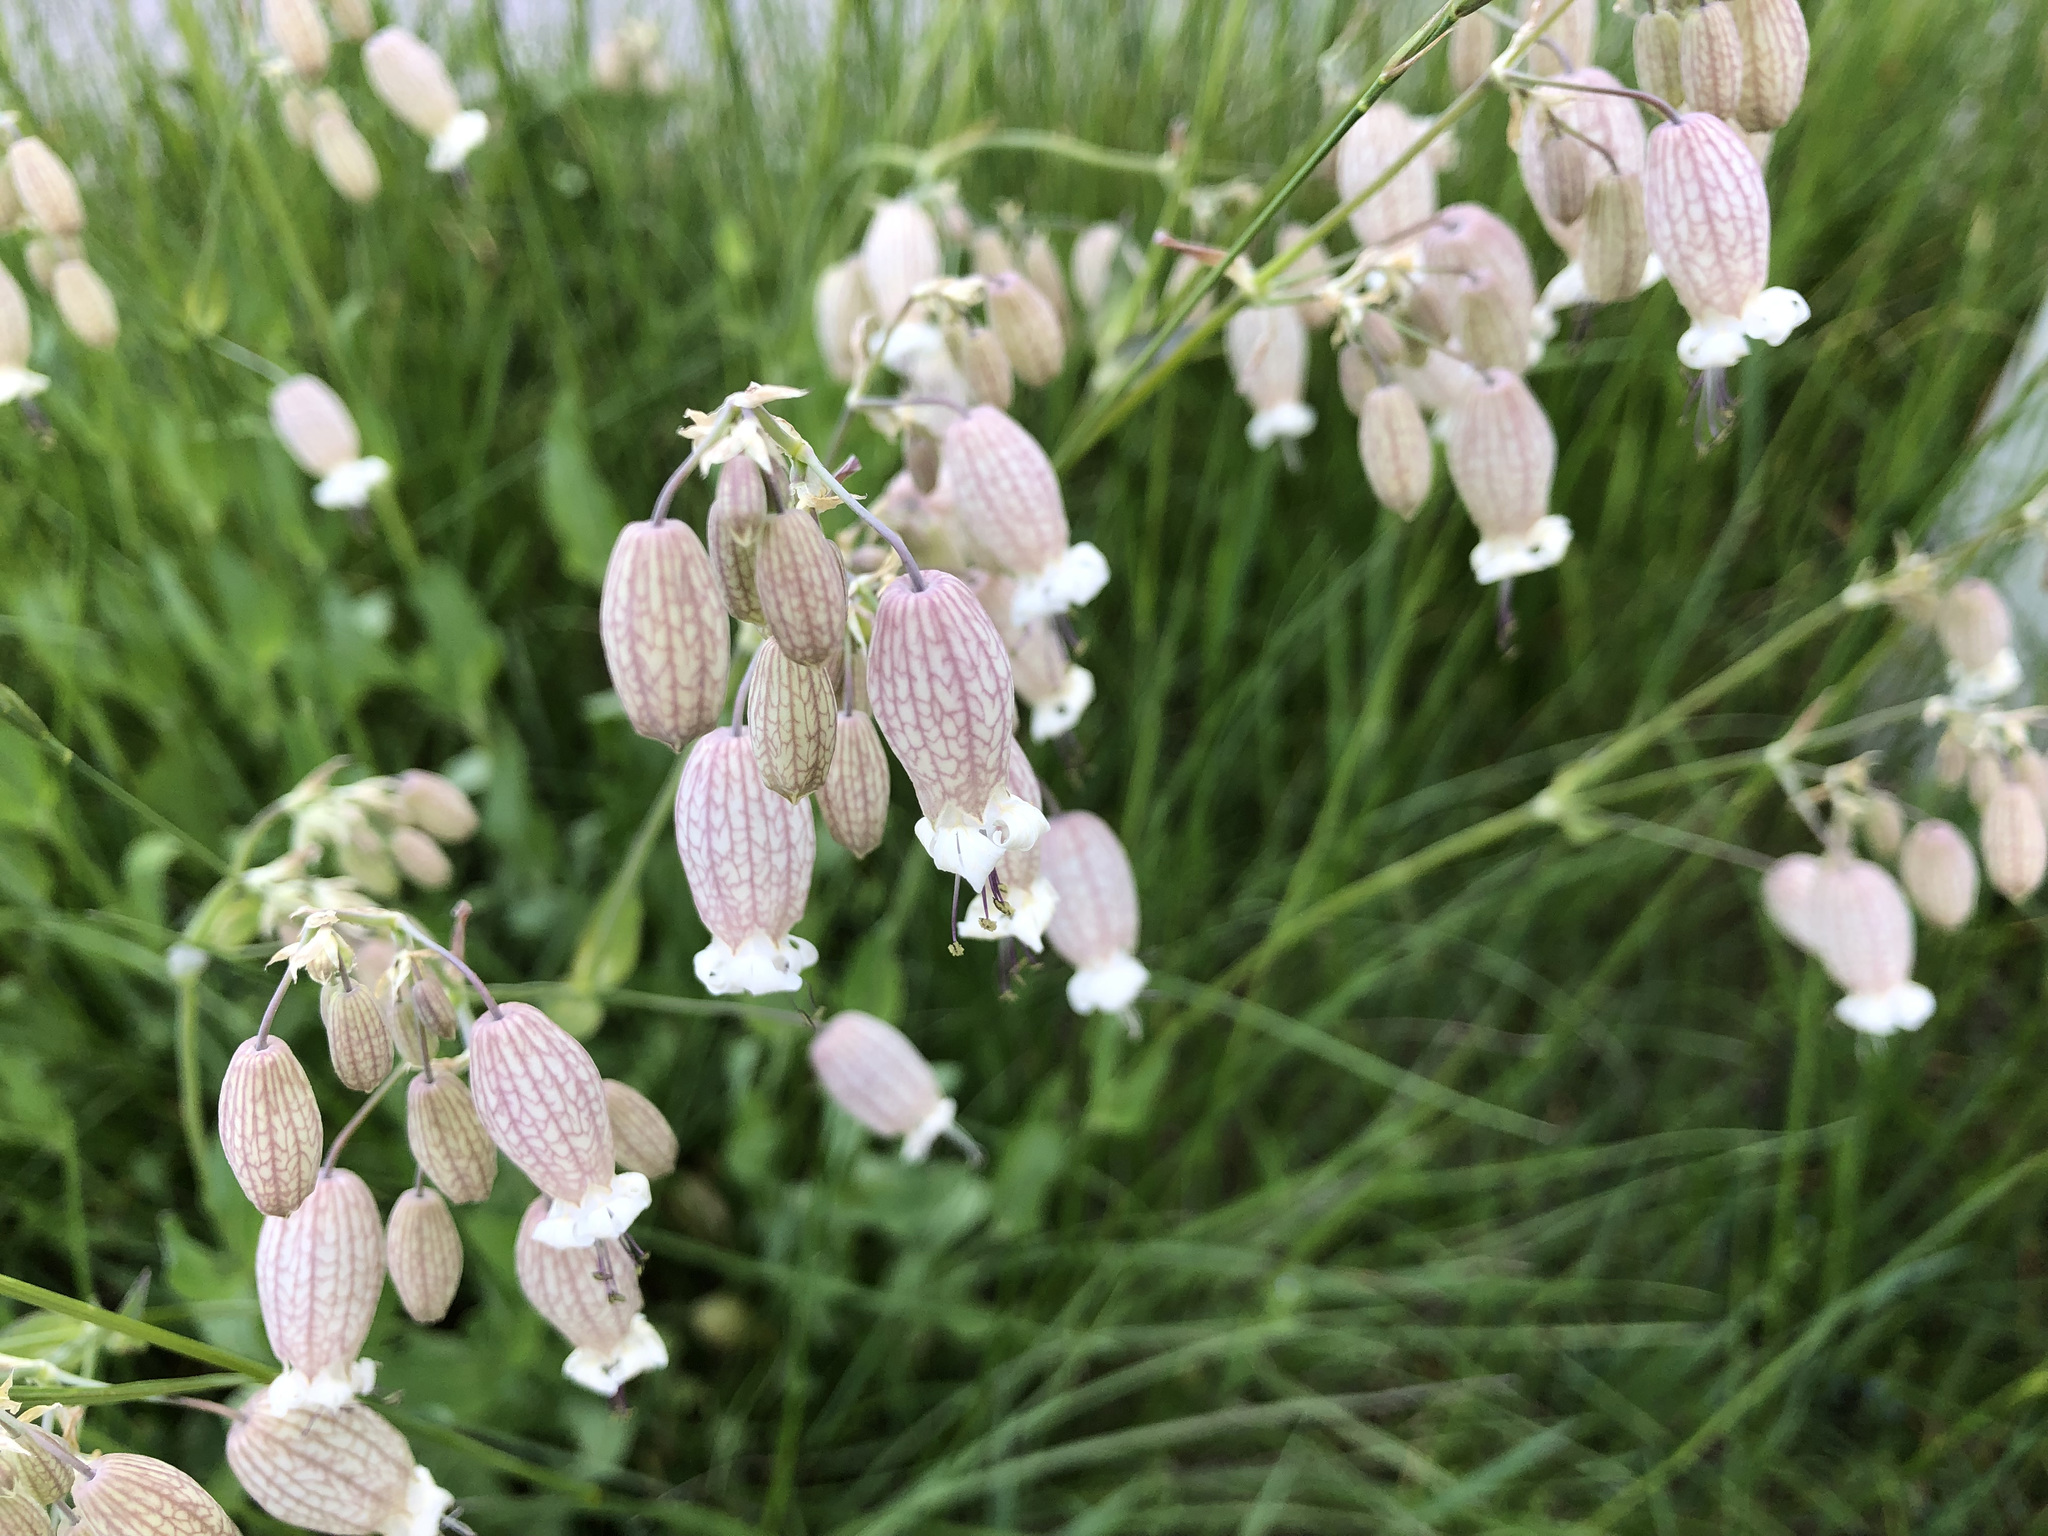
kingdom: Plantae
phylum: Tracheophyta
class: Magnoliopsida
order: Caryophyllales
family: Caryophyllaceae
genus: Silene
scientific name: Silene vulgaris
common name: Bladder campion
